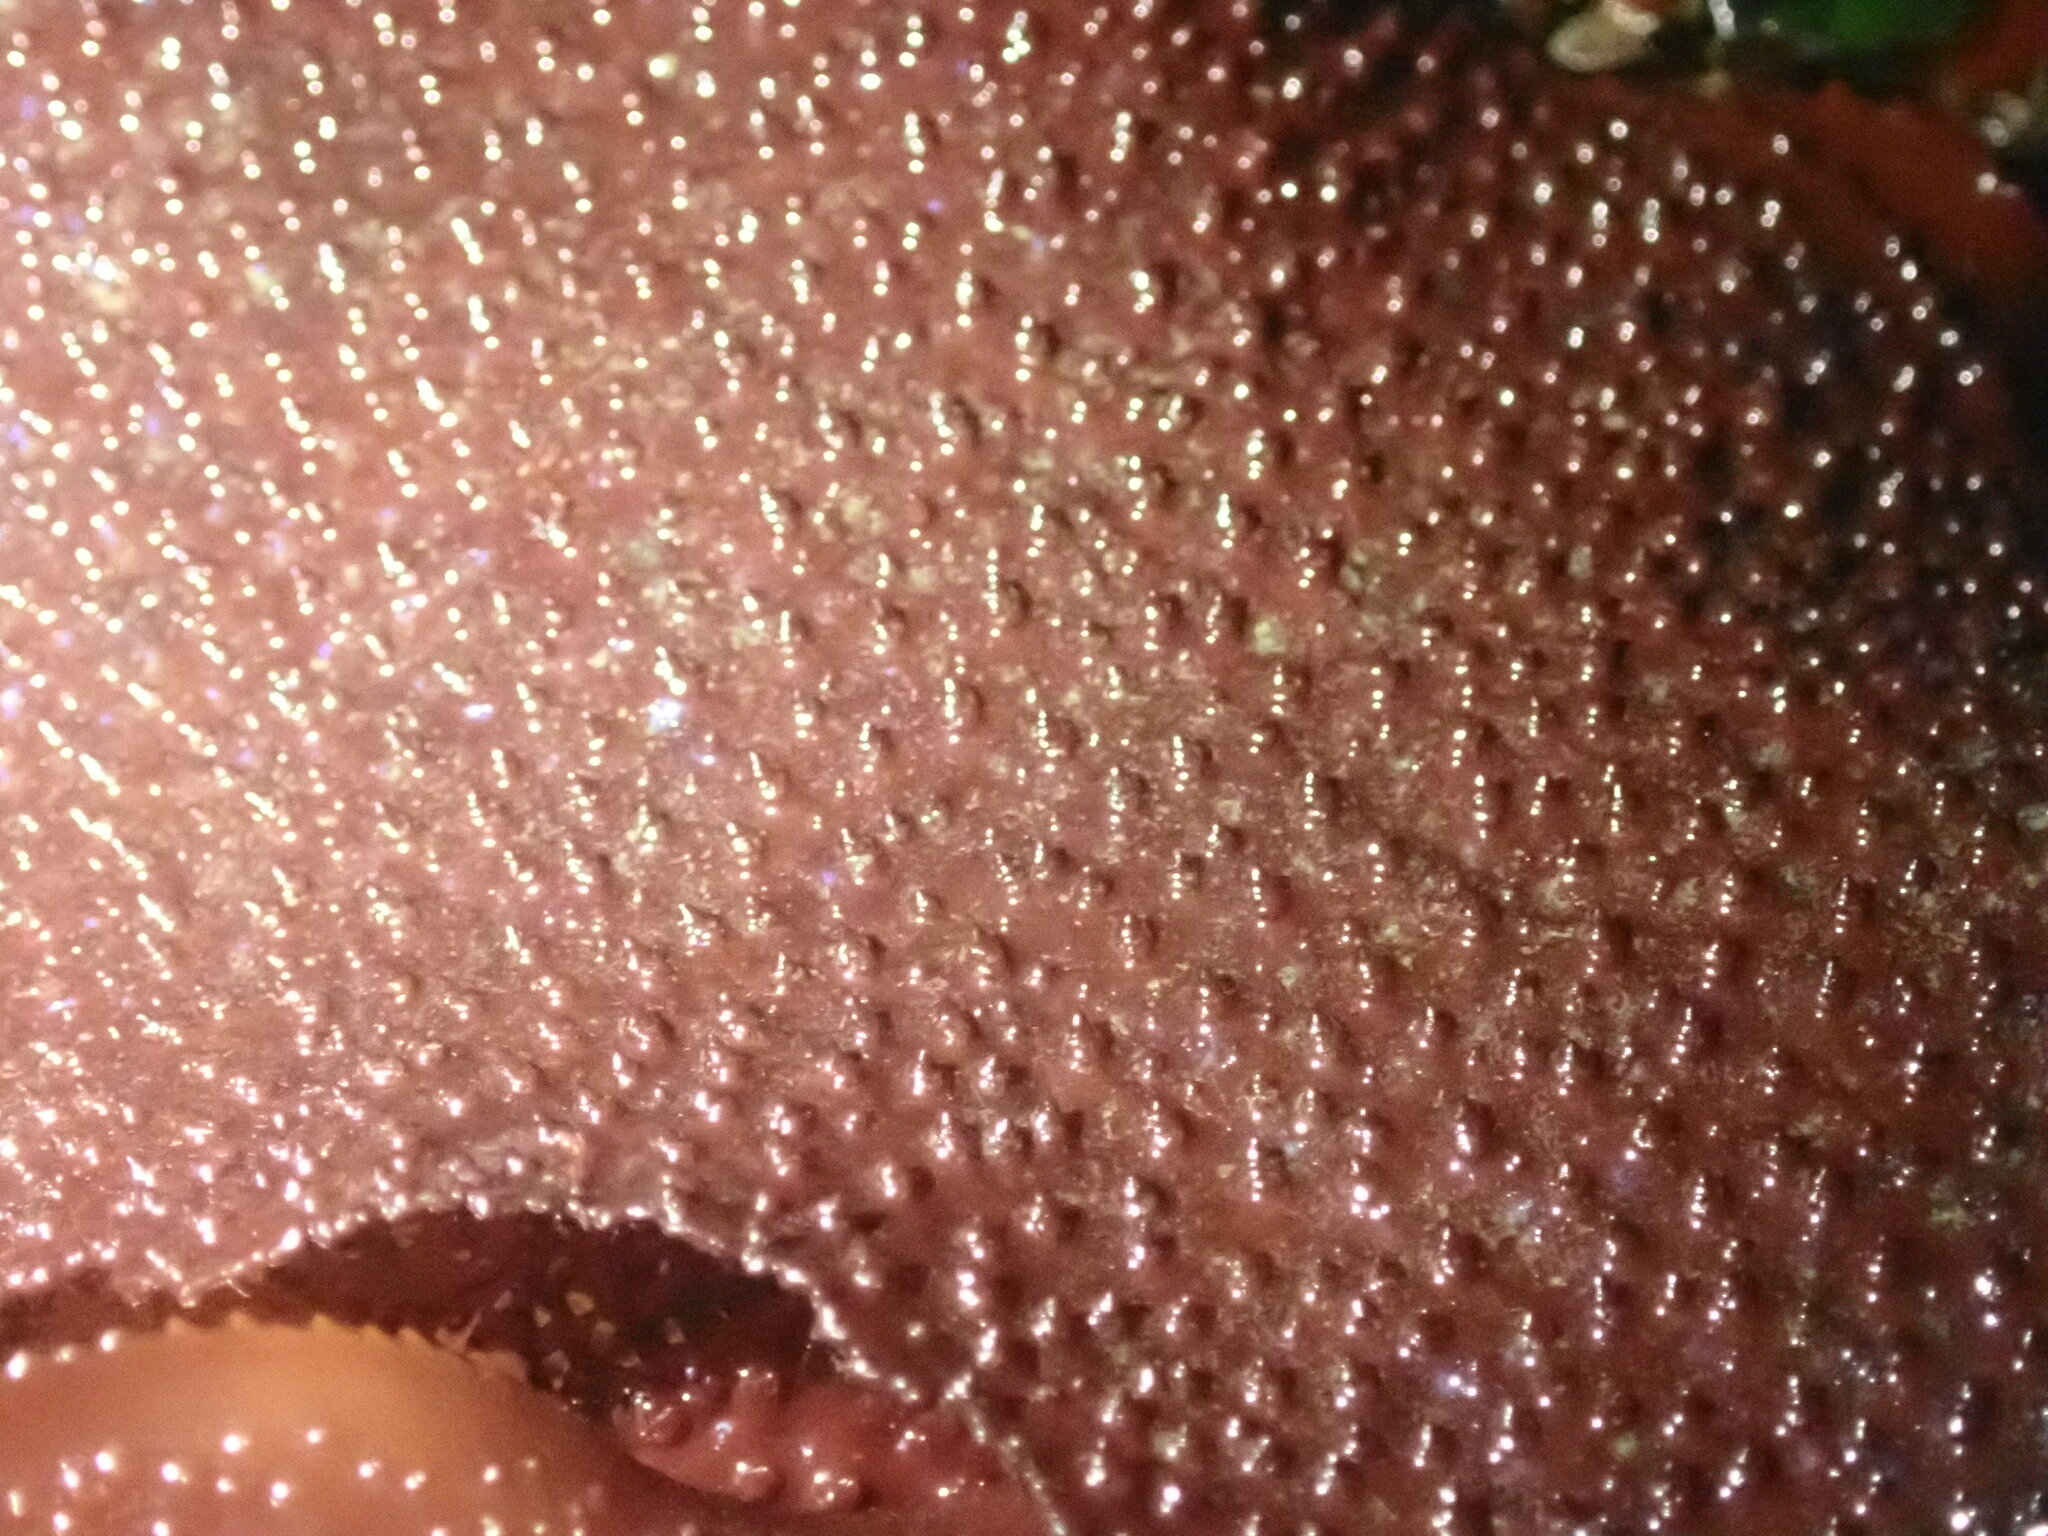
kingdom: Plantae
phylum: Rhodophyta
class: Florideophyceae
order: Gigartinales
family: Gigartinaceae
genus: Chondracanthus
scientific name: Chondracanthus exasperatus
